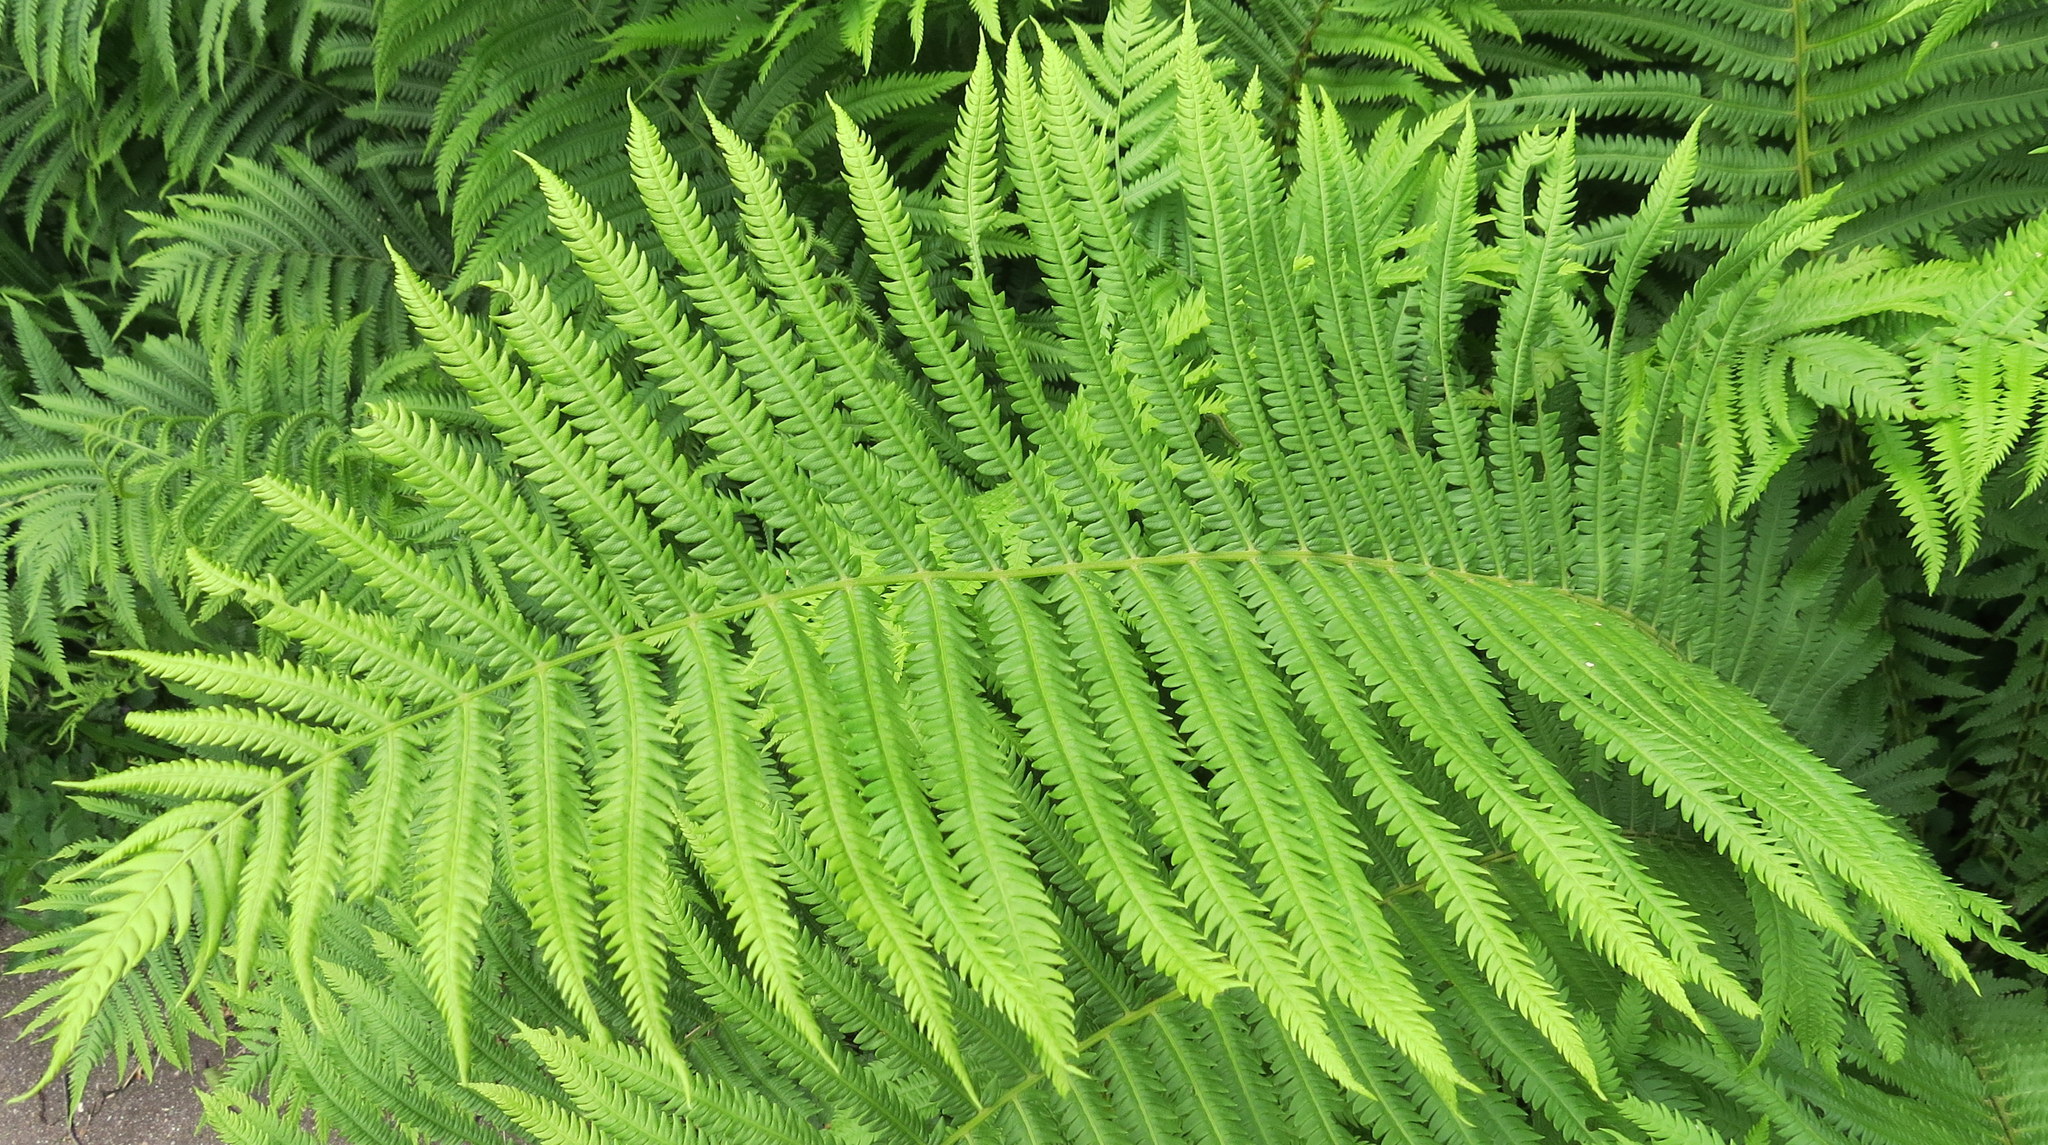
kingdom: Plantae
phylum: Tracheophyta
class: Polypodiopsida
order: Polypodiales
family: Onocleaceae
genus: Matteuccia
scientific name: Matteuccia struthiopteris
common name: Ostrich fern
